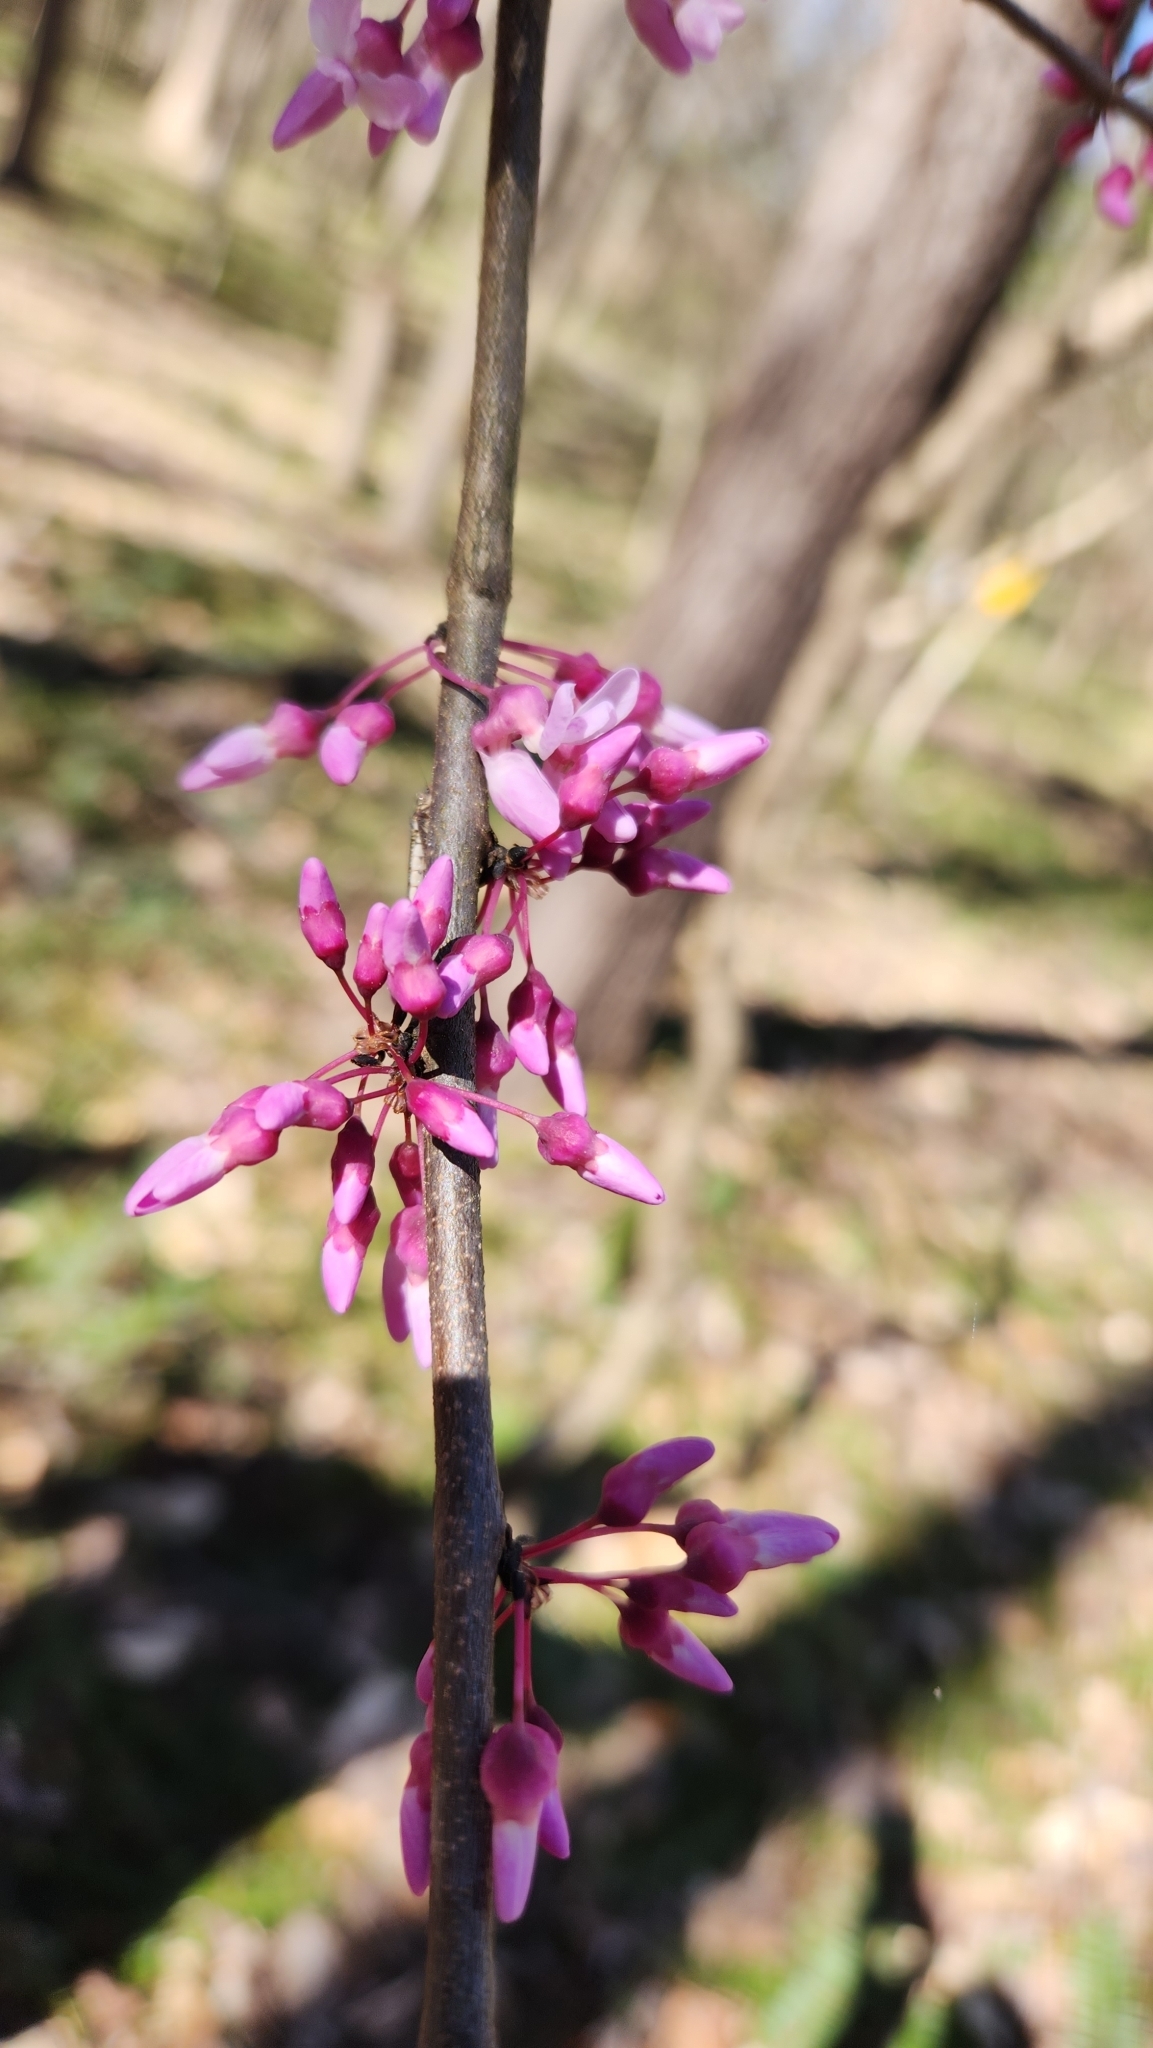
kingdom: Plantae
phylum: Tracheophyta
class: Magnoliopsida
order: Fabales
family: Fabaceae
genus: Cercis
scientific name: Cercis canadensis
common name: Eastern redbud
